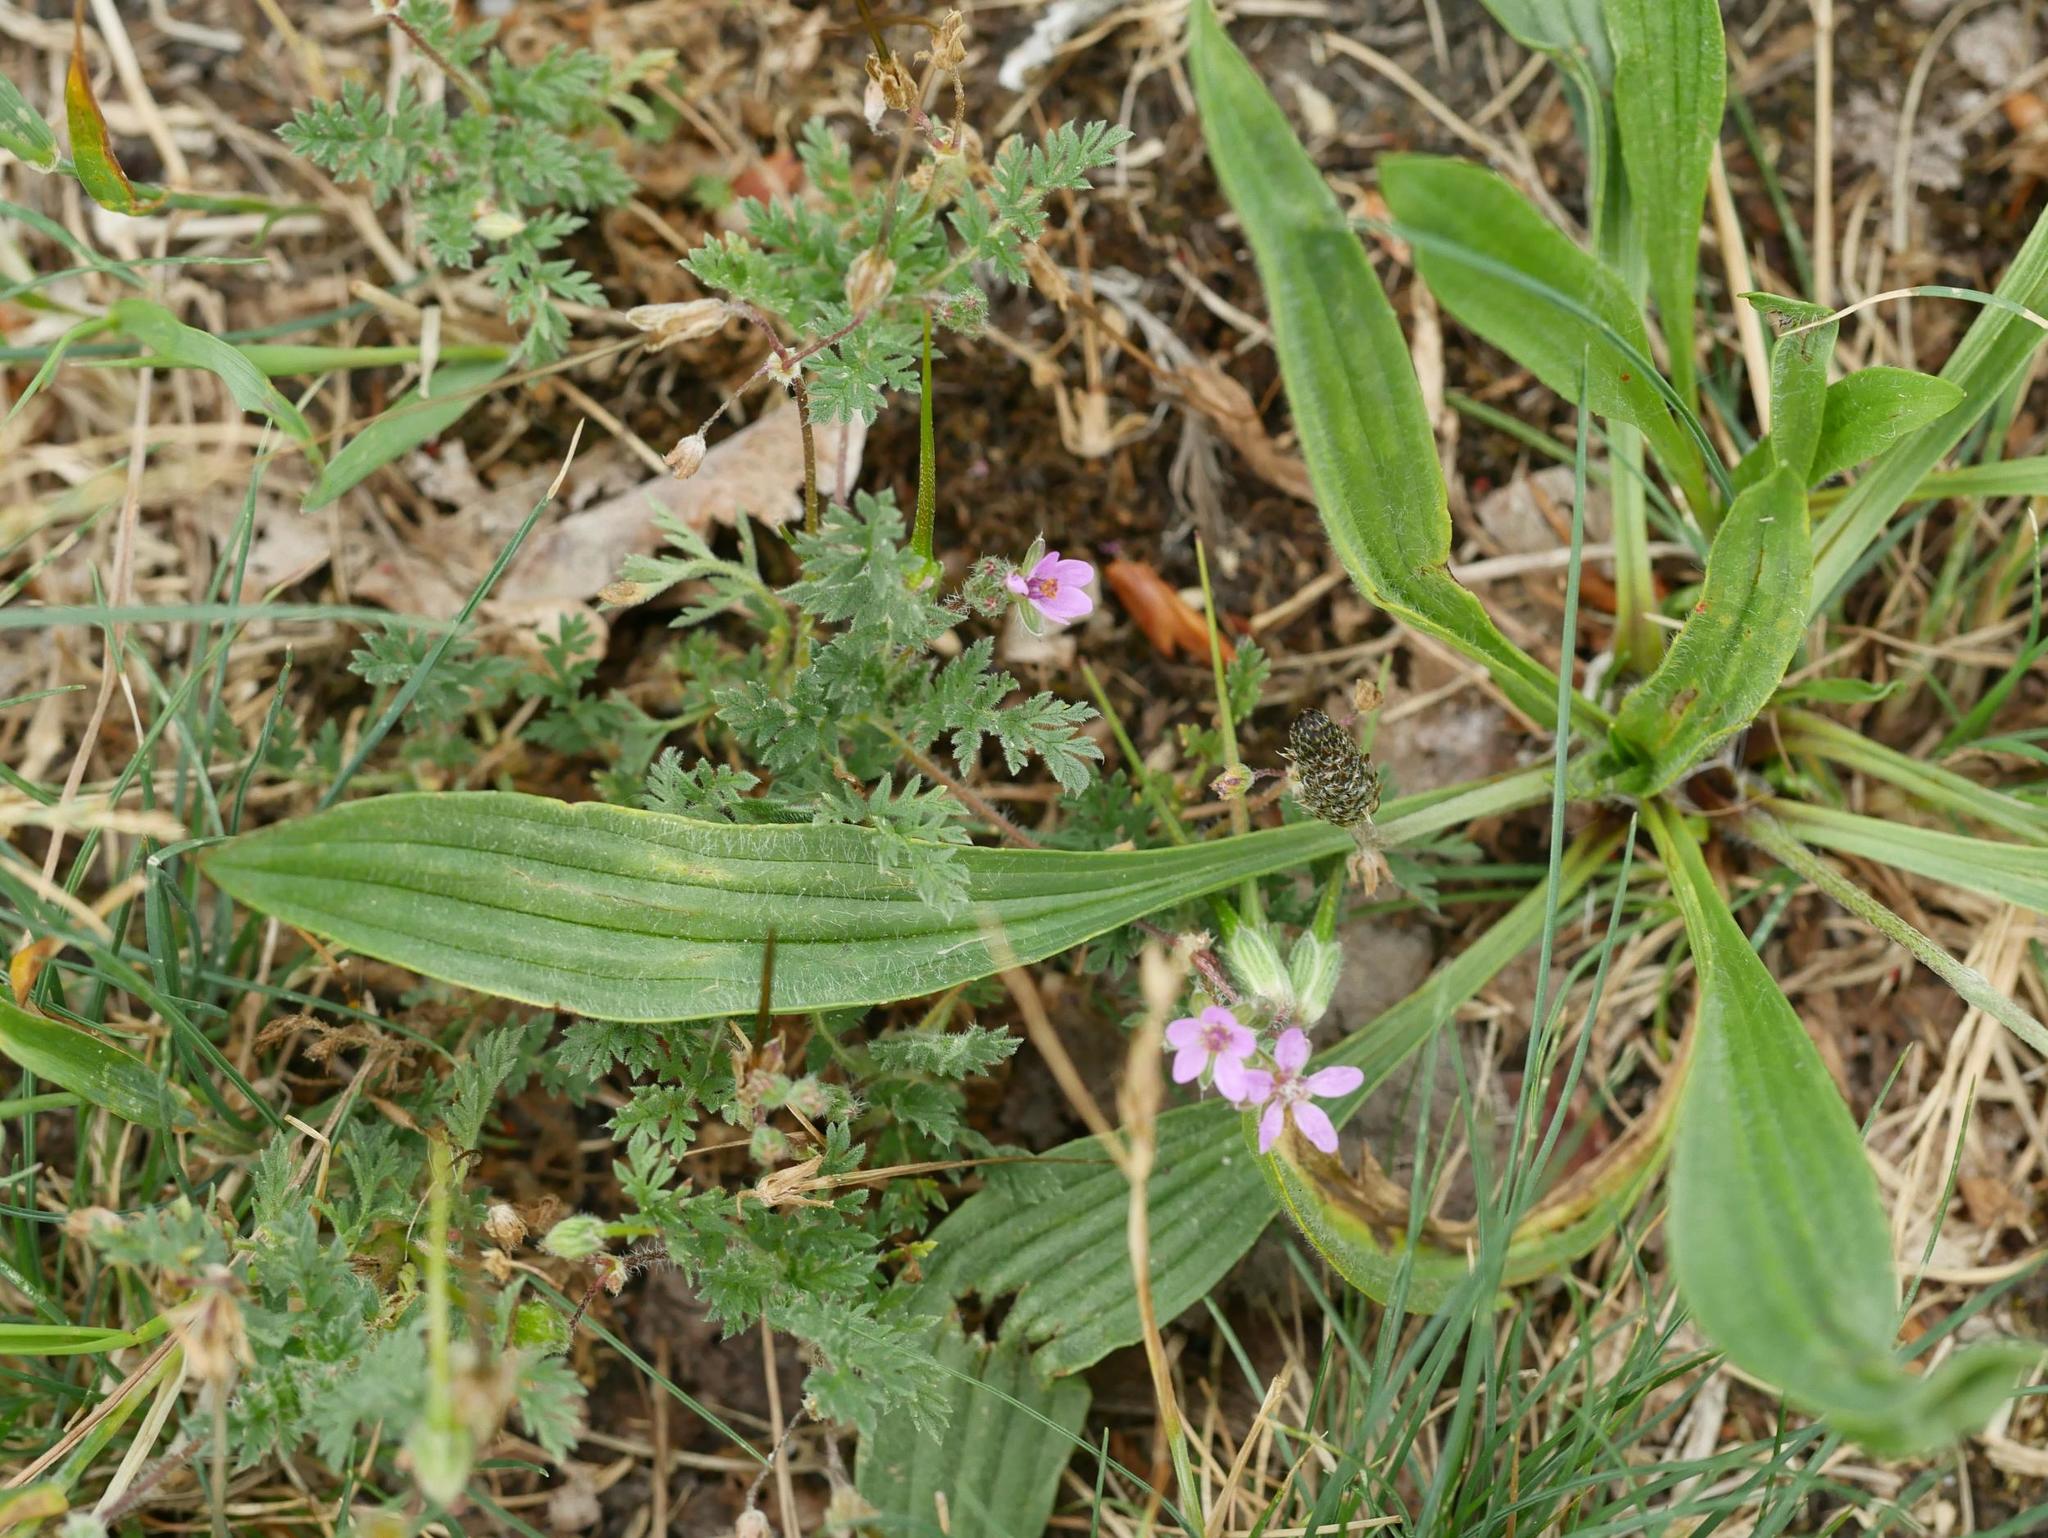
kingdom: Plantae
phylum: Tracheophyta
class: Magnoliopsida
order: Lamiales
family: Plantaginaceae
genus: Plantago
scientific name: Plantago lanceolata
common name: Ribwort plantain
